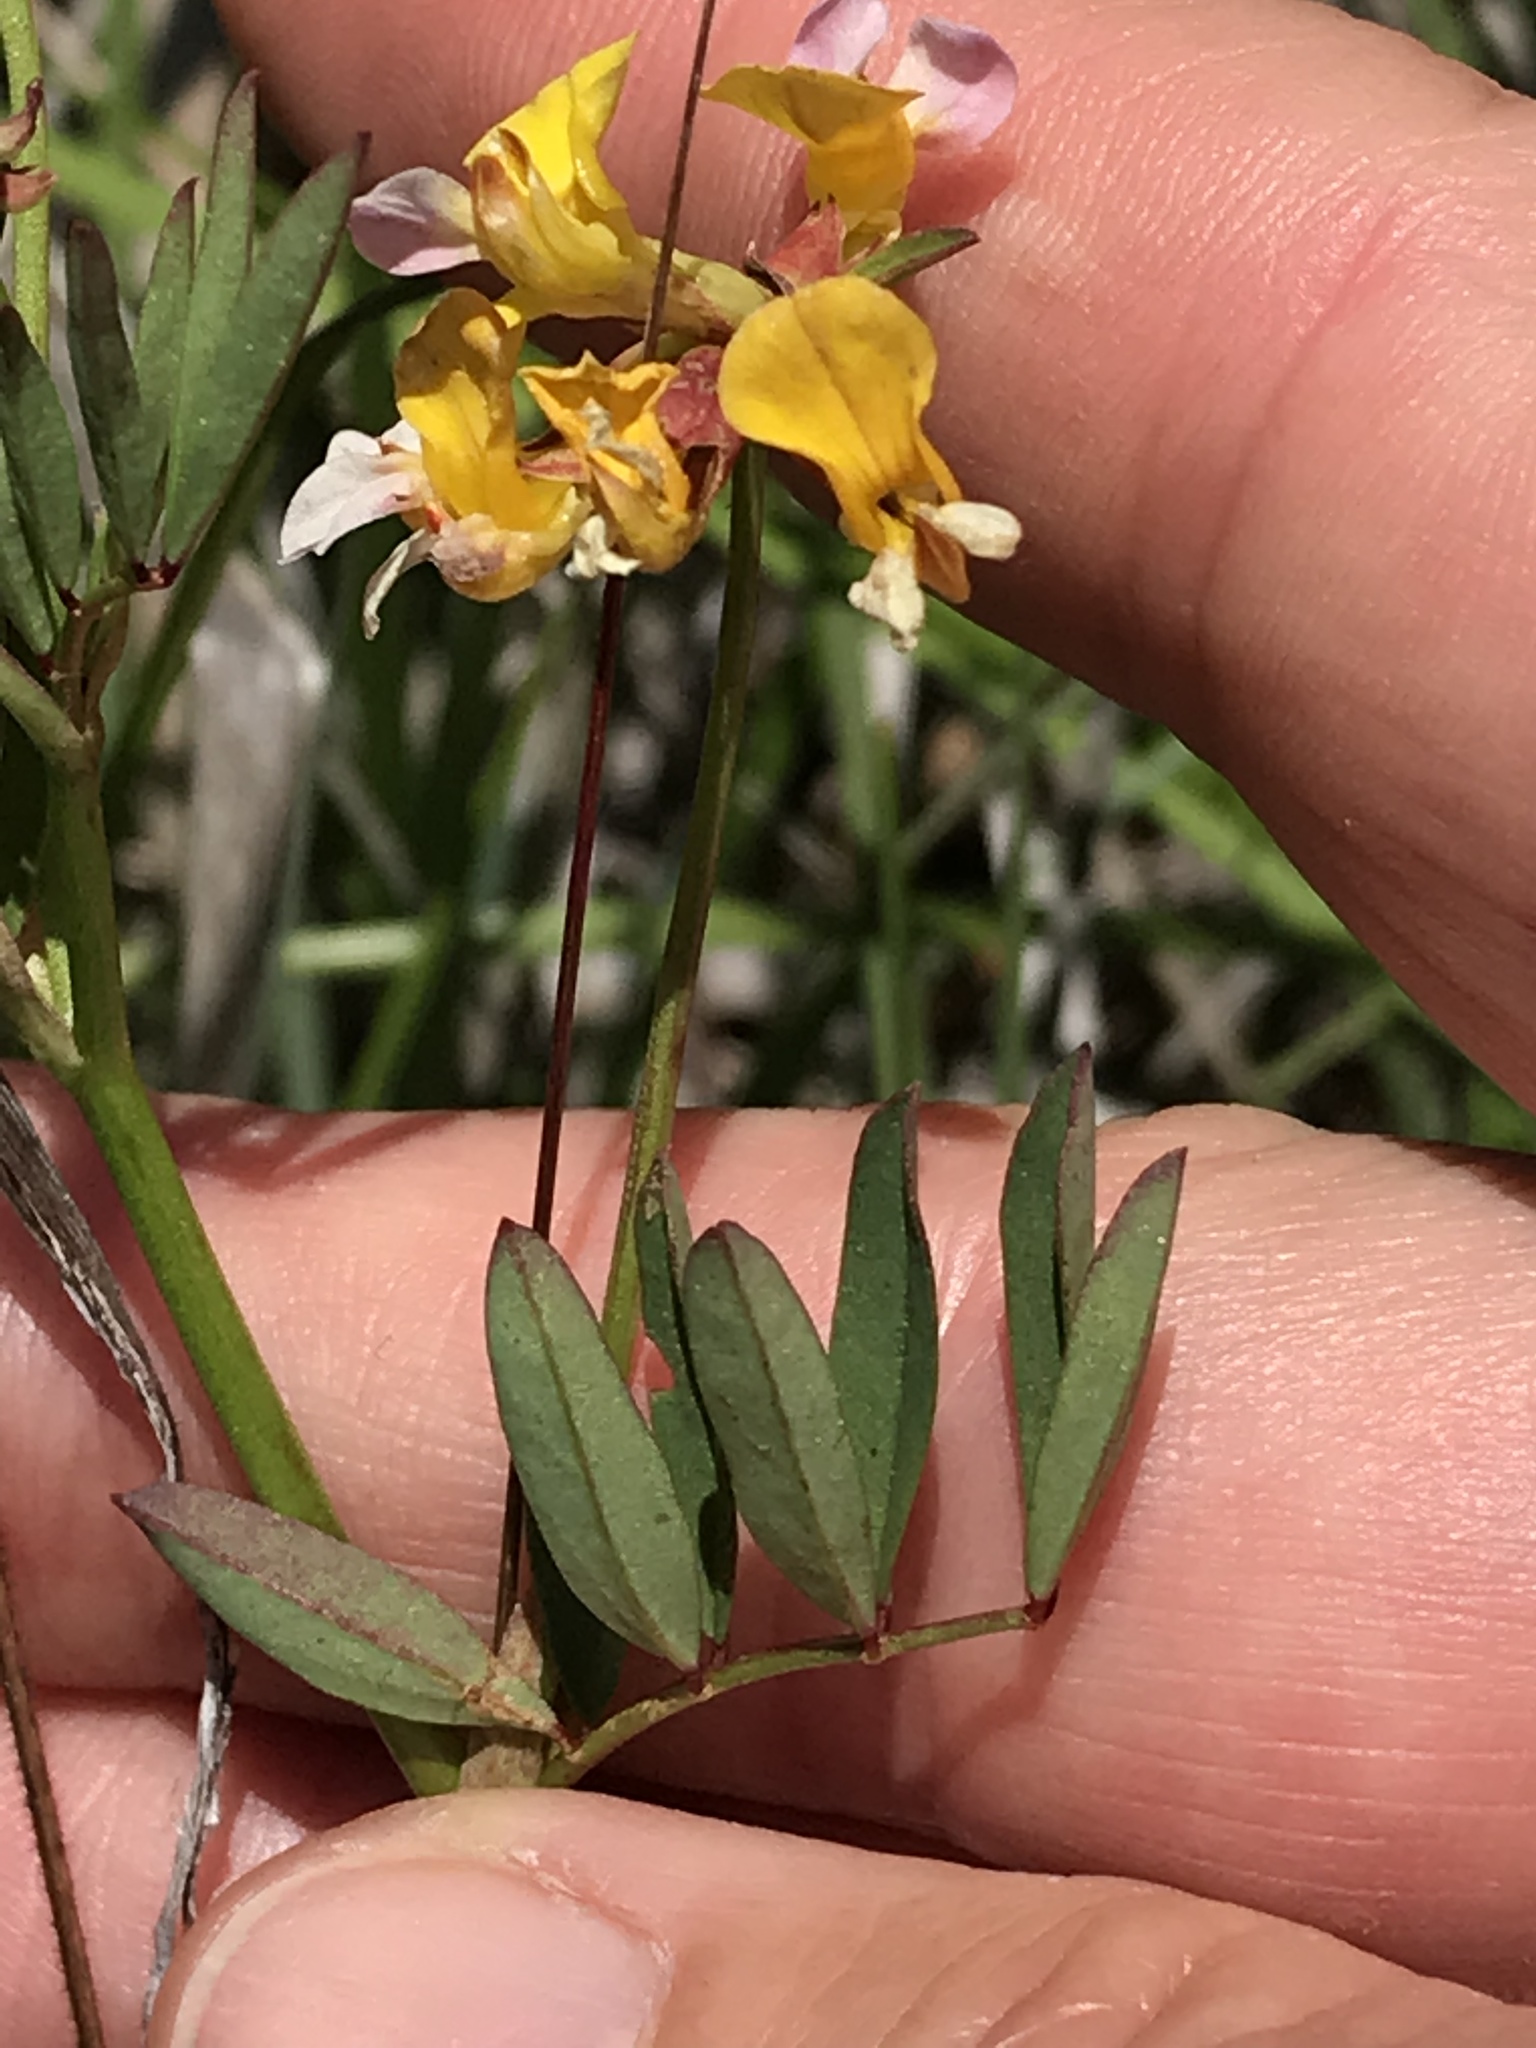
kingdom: Plantae
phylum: Tracheophyta
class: Magnoliopsida
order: Fabales
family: Fabaceae
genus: Hosackia
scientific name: Hosackia gracilis
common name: Seaside bird's-foot lotus
